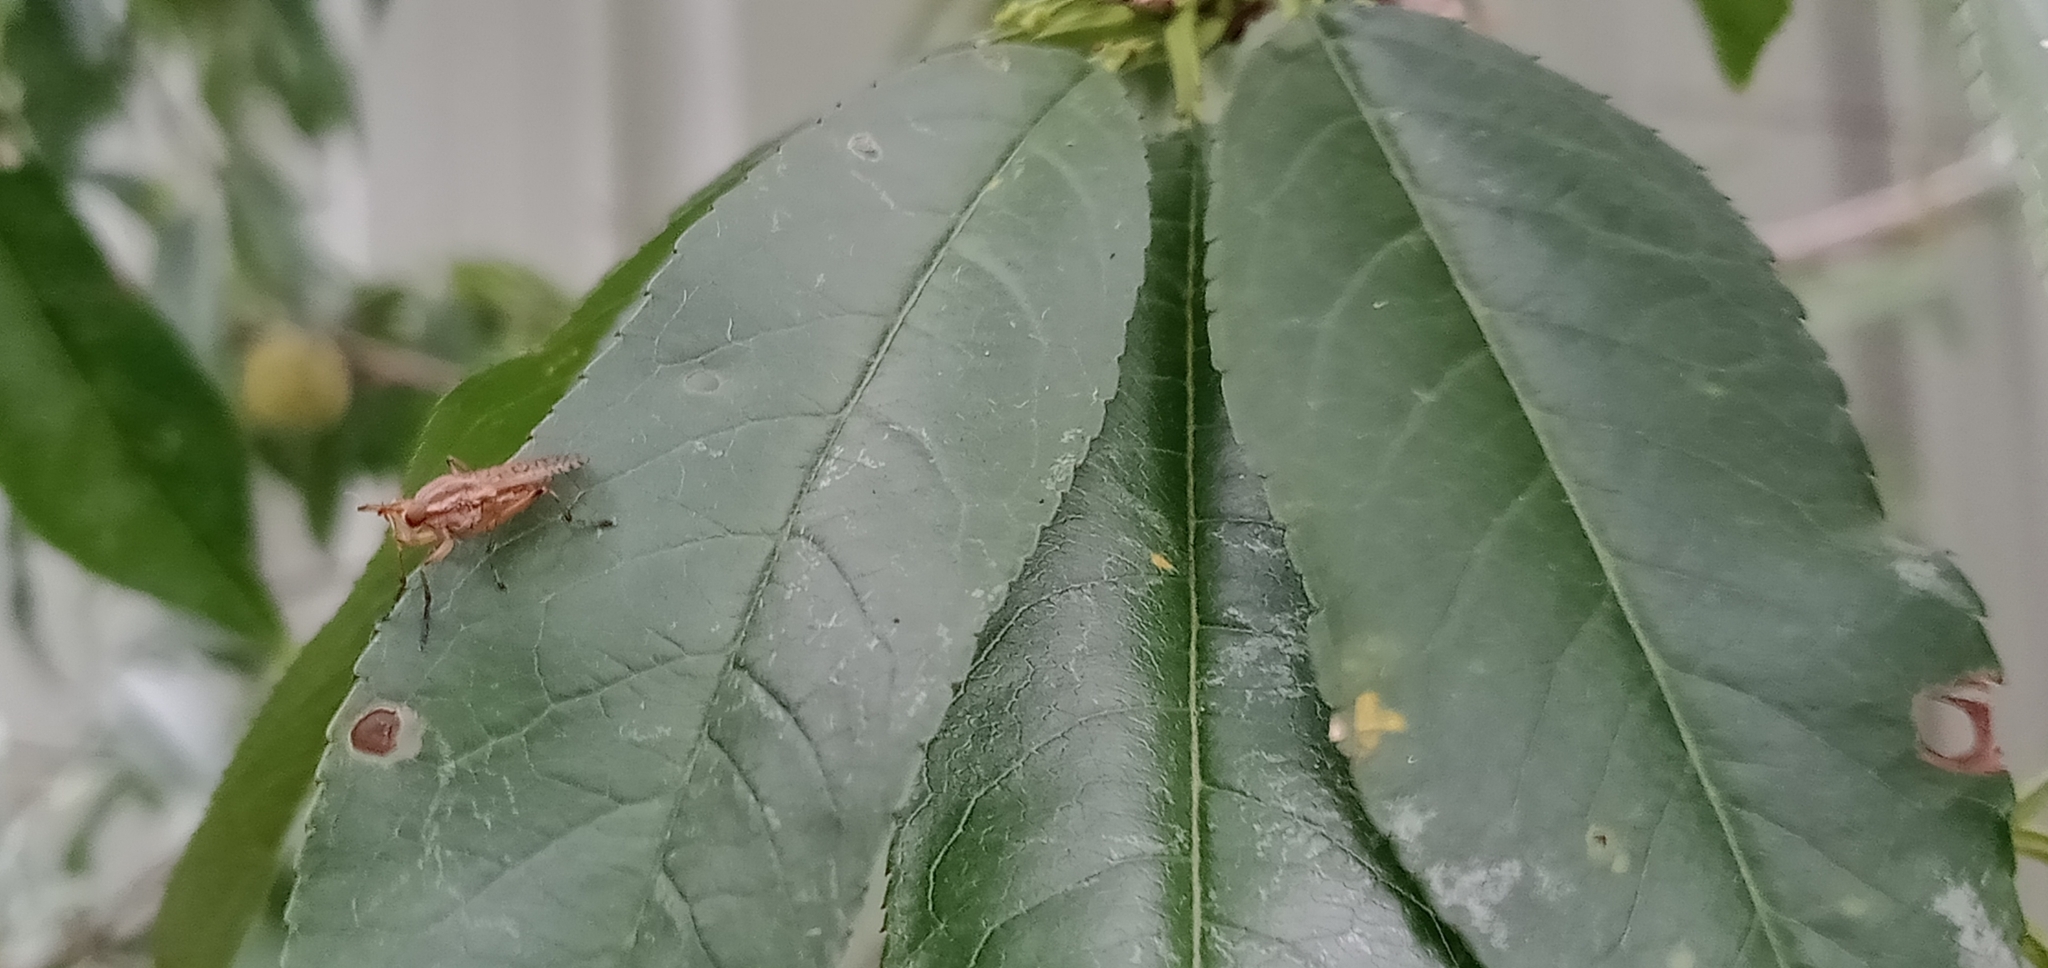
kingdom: Animalia
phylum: Arthropoda
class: Insecta
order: Diptera
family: Syrphidae
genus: Eristalinus
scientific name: Eristalinus punctulatus
